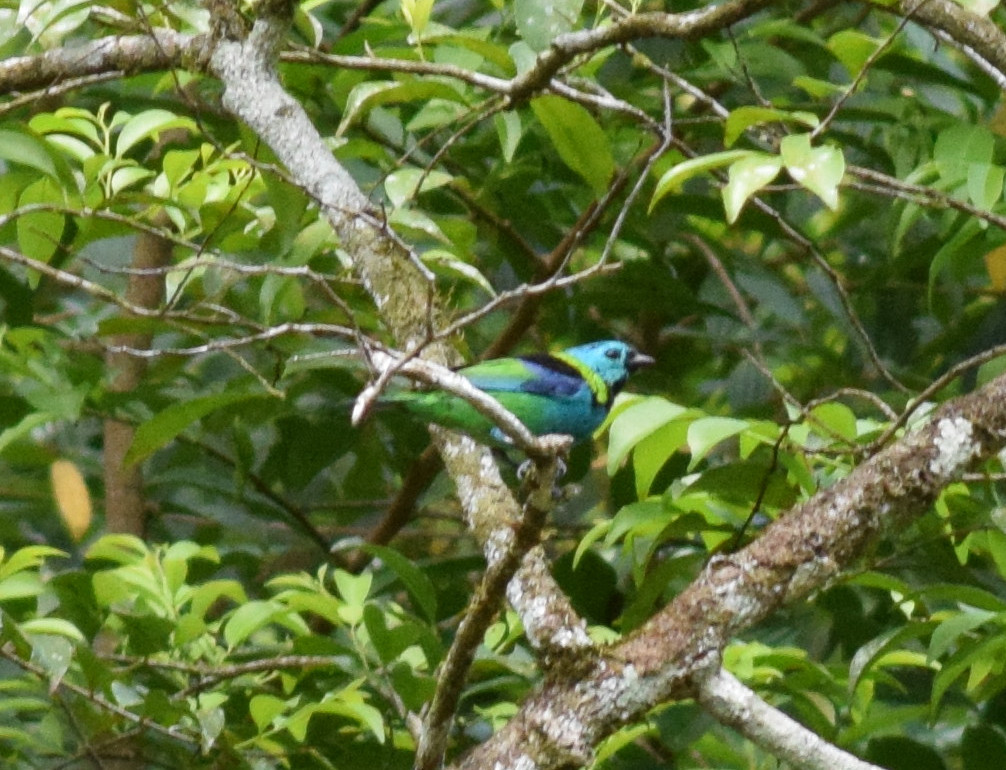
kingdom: Animalia
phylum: Chordata
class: Aves
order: Passeriformes
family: Thraupidae
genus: Tangara
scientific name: Tangara seledon
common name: Green-headed tanager
